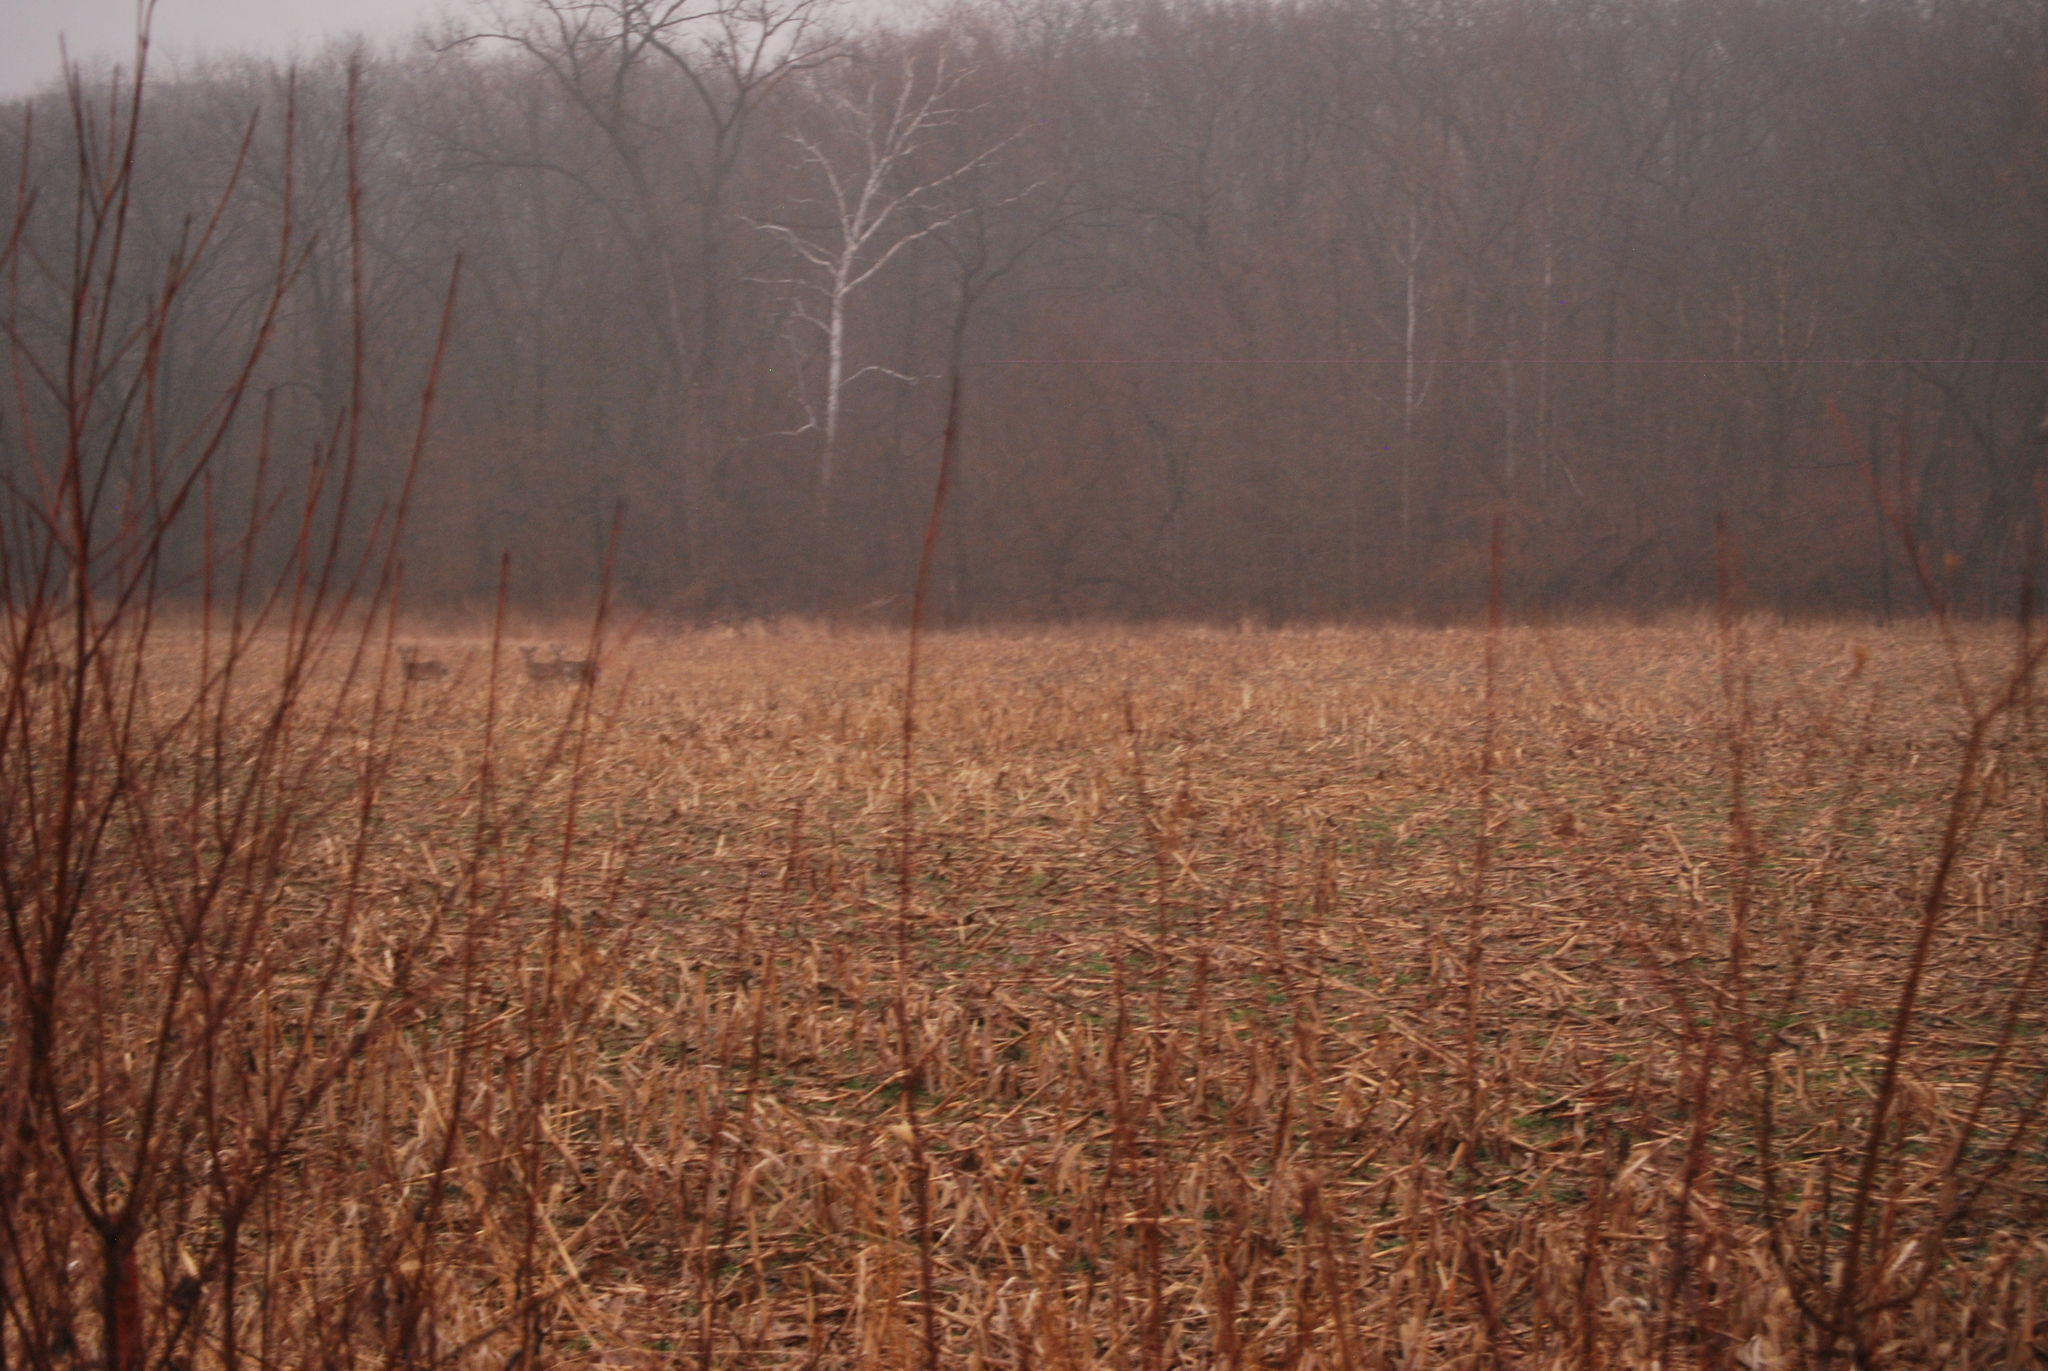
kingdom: Animalia
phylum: Chordata
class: Mammalia
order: Artiodactyla
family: Cervidae
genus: Odocoileus
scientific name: Odocoileus virginianus
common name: White-tailed deer
